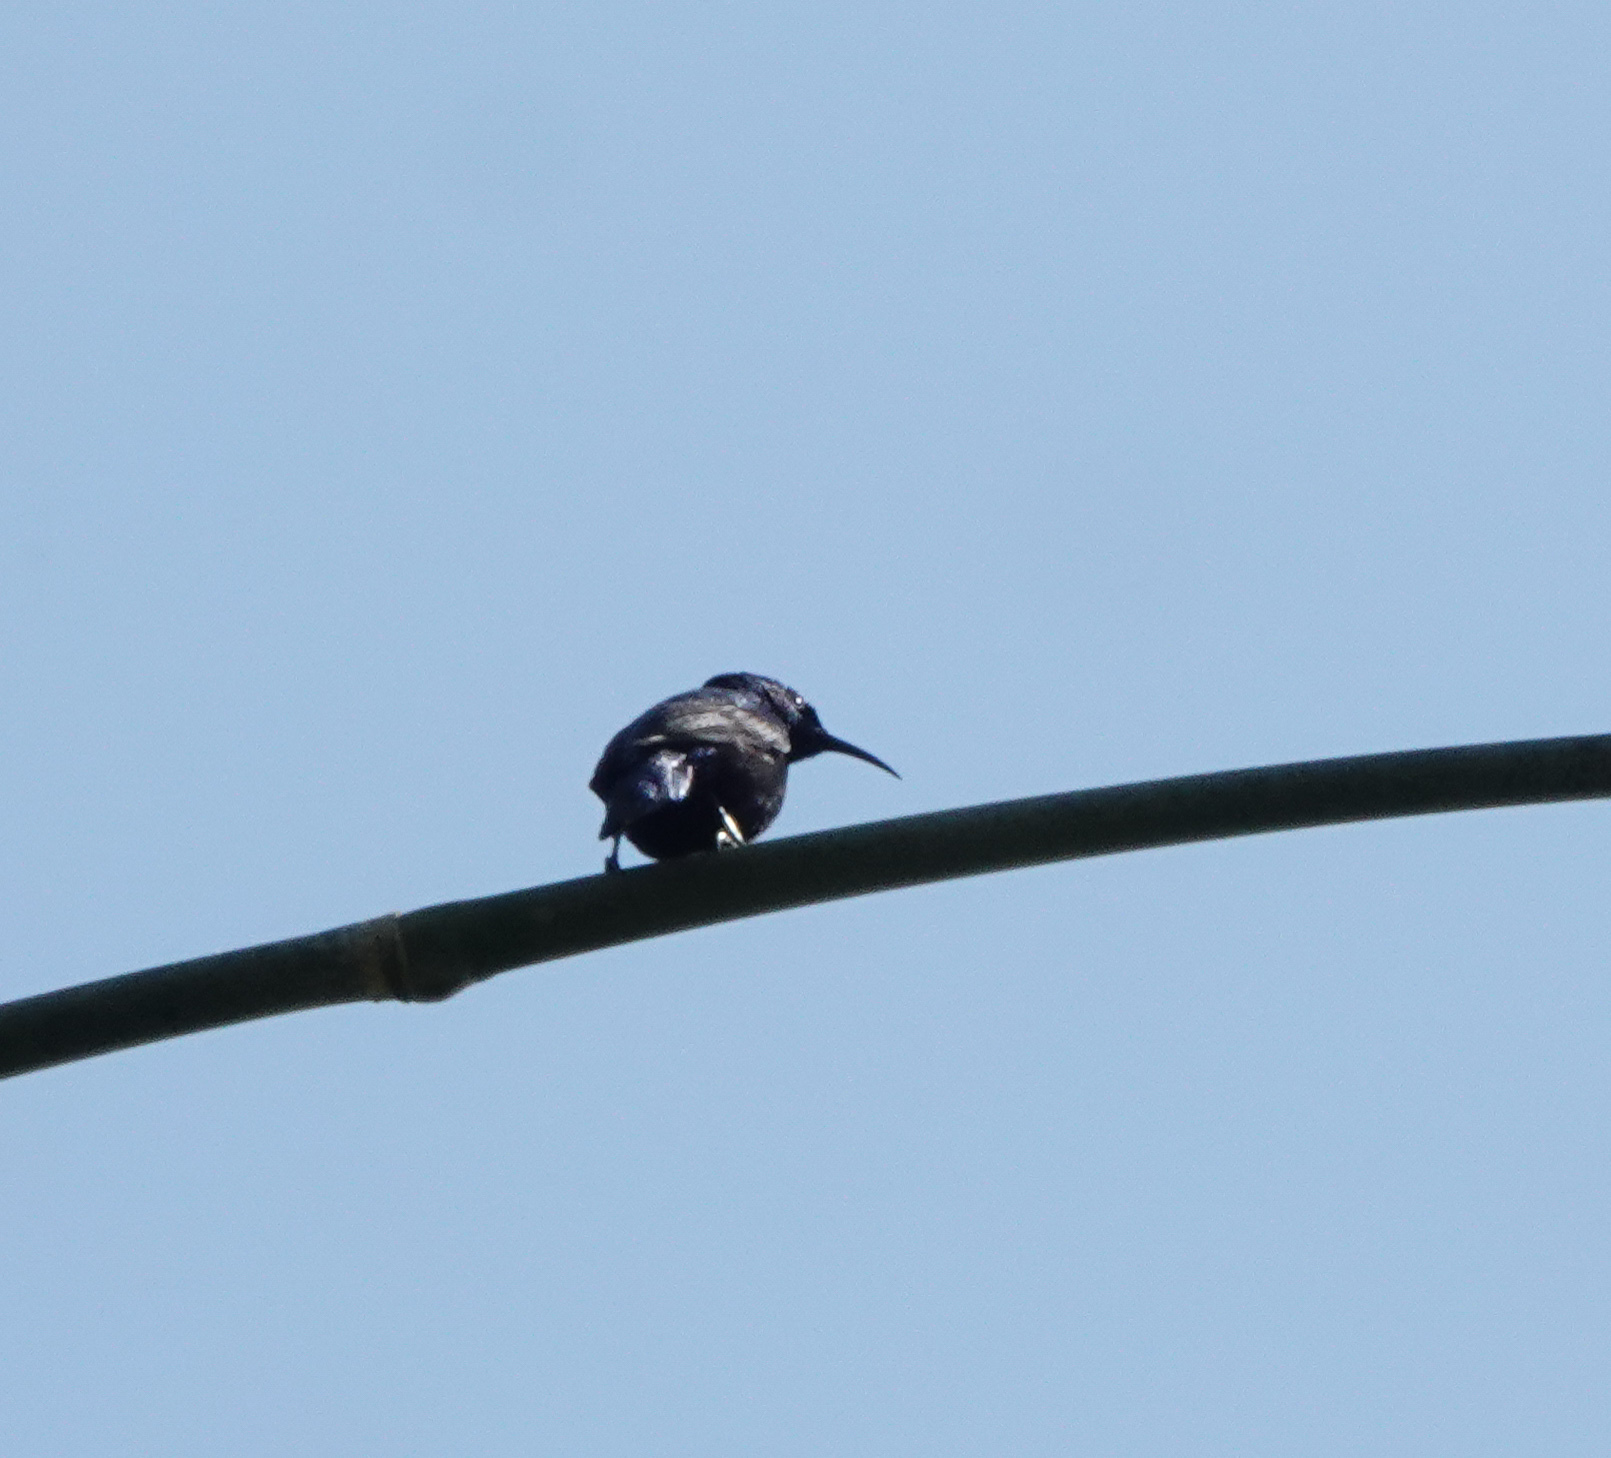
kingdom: Animalia
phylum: Chordata
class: Aves
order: Passeriformes
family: Nectariniidae
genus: Cinnyris
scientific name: Cinnyris asiaticus
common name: Purple sunbird
